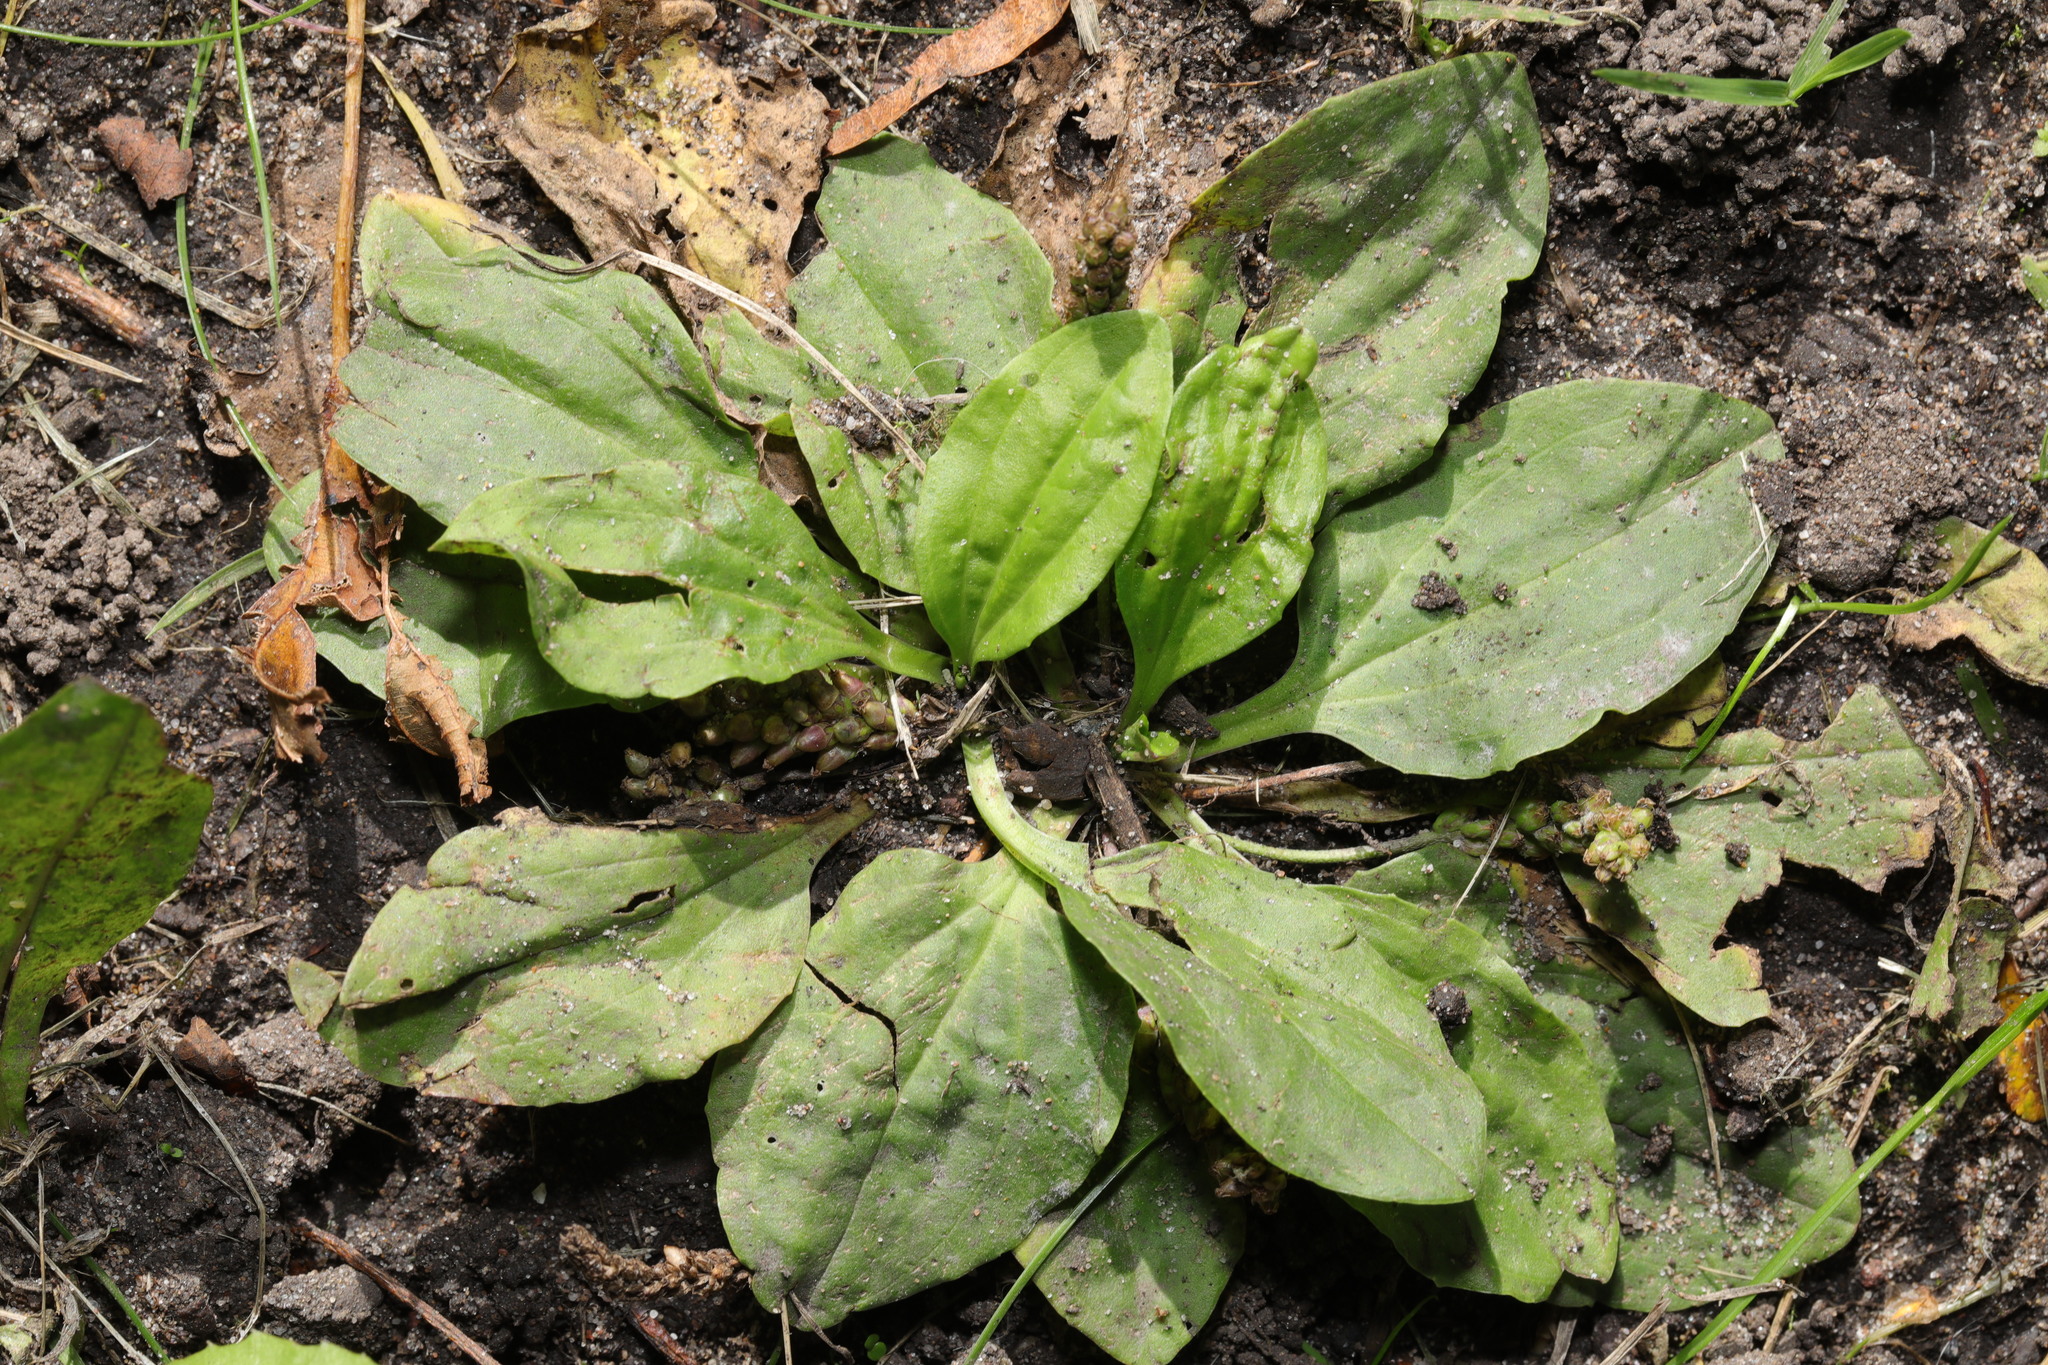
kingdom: Plantae
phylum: Tracheophyta
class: Magnoliopsida
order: Lamiales
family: Plantaginaceae
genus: Plantago
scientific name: Plantago major
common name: Common plantain
